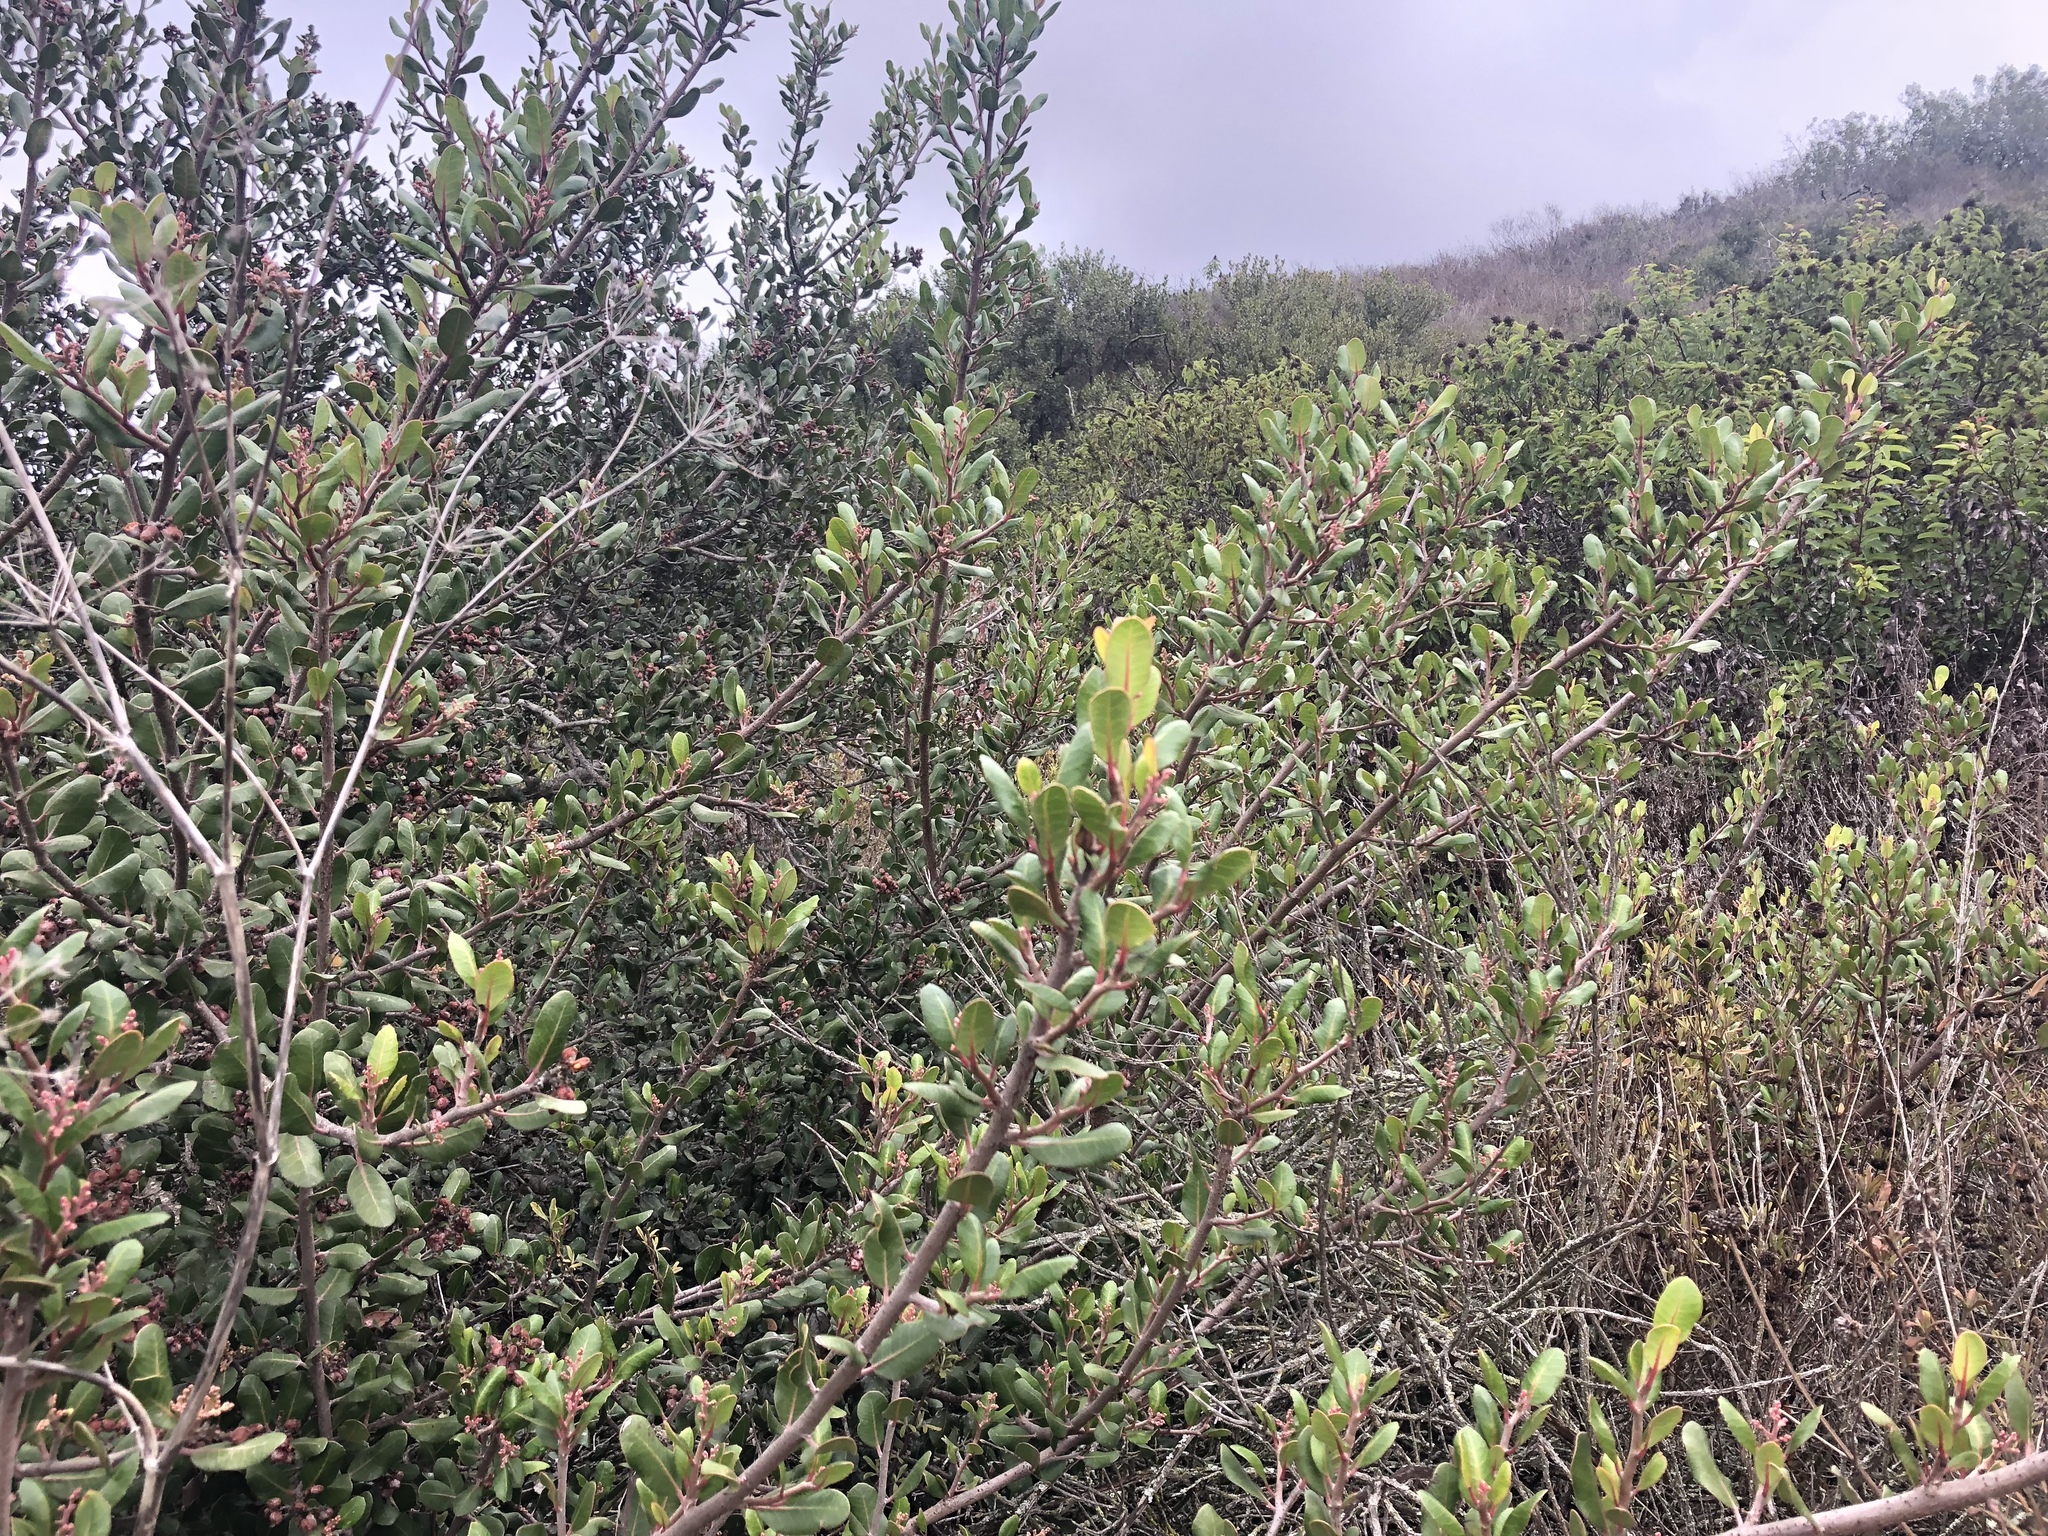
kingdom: Plantae
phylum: Tracheophyta
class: Magnoliopsida
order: Sapindales
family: Anacardiaceae
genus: Rhus
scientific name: Rhus integrifolia
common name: Lemonade sumac
